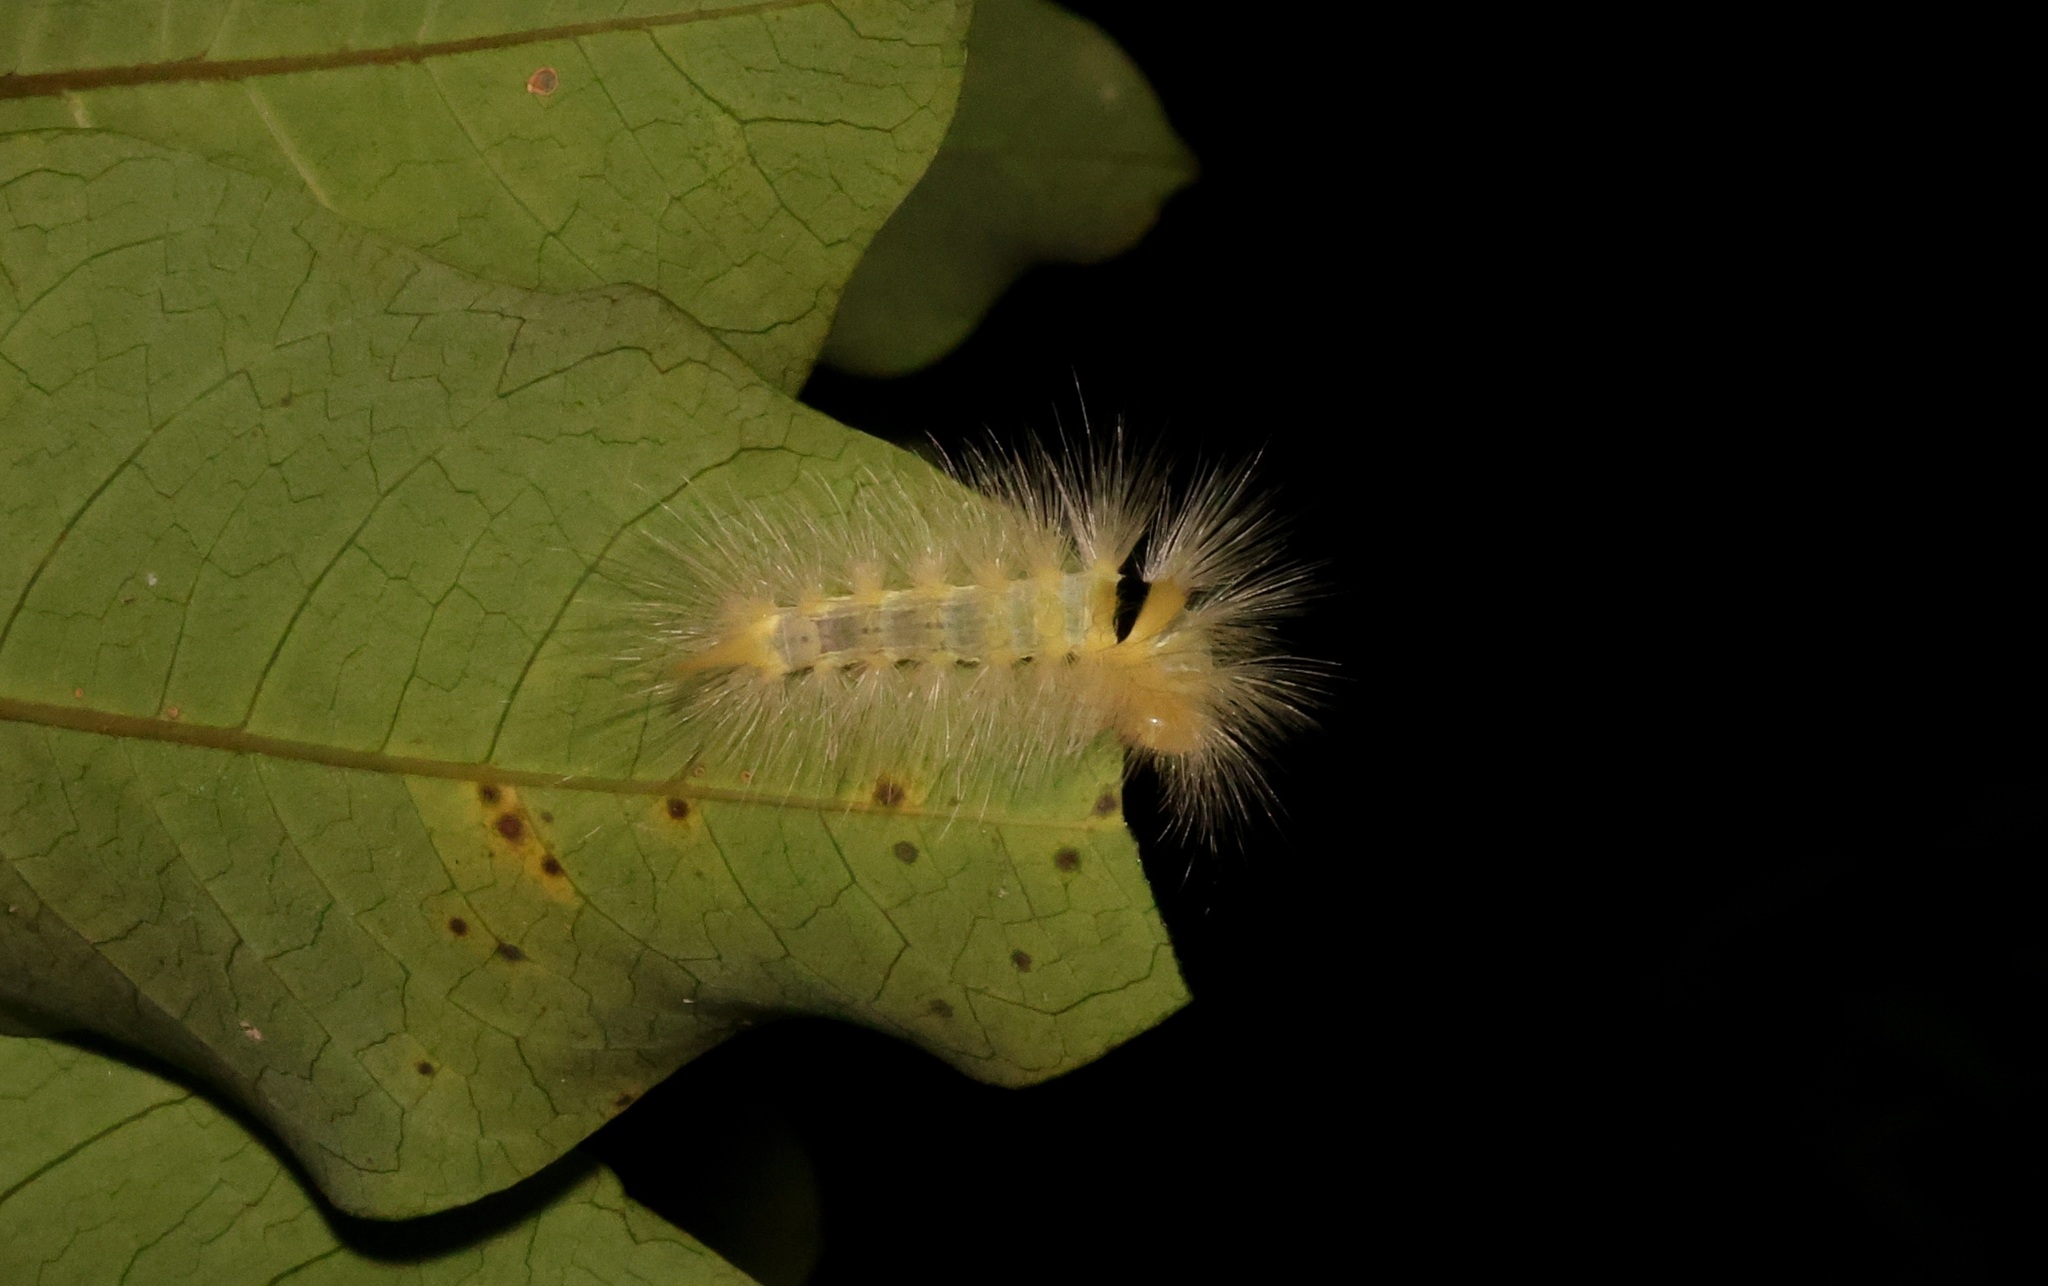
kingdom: Animalia
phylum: Arthropoda
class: Insecta
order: Lepidoptera
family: Erebidae
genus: Calliteara
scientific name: Calliteara grotei
